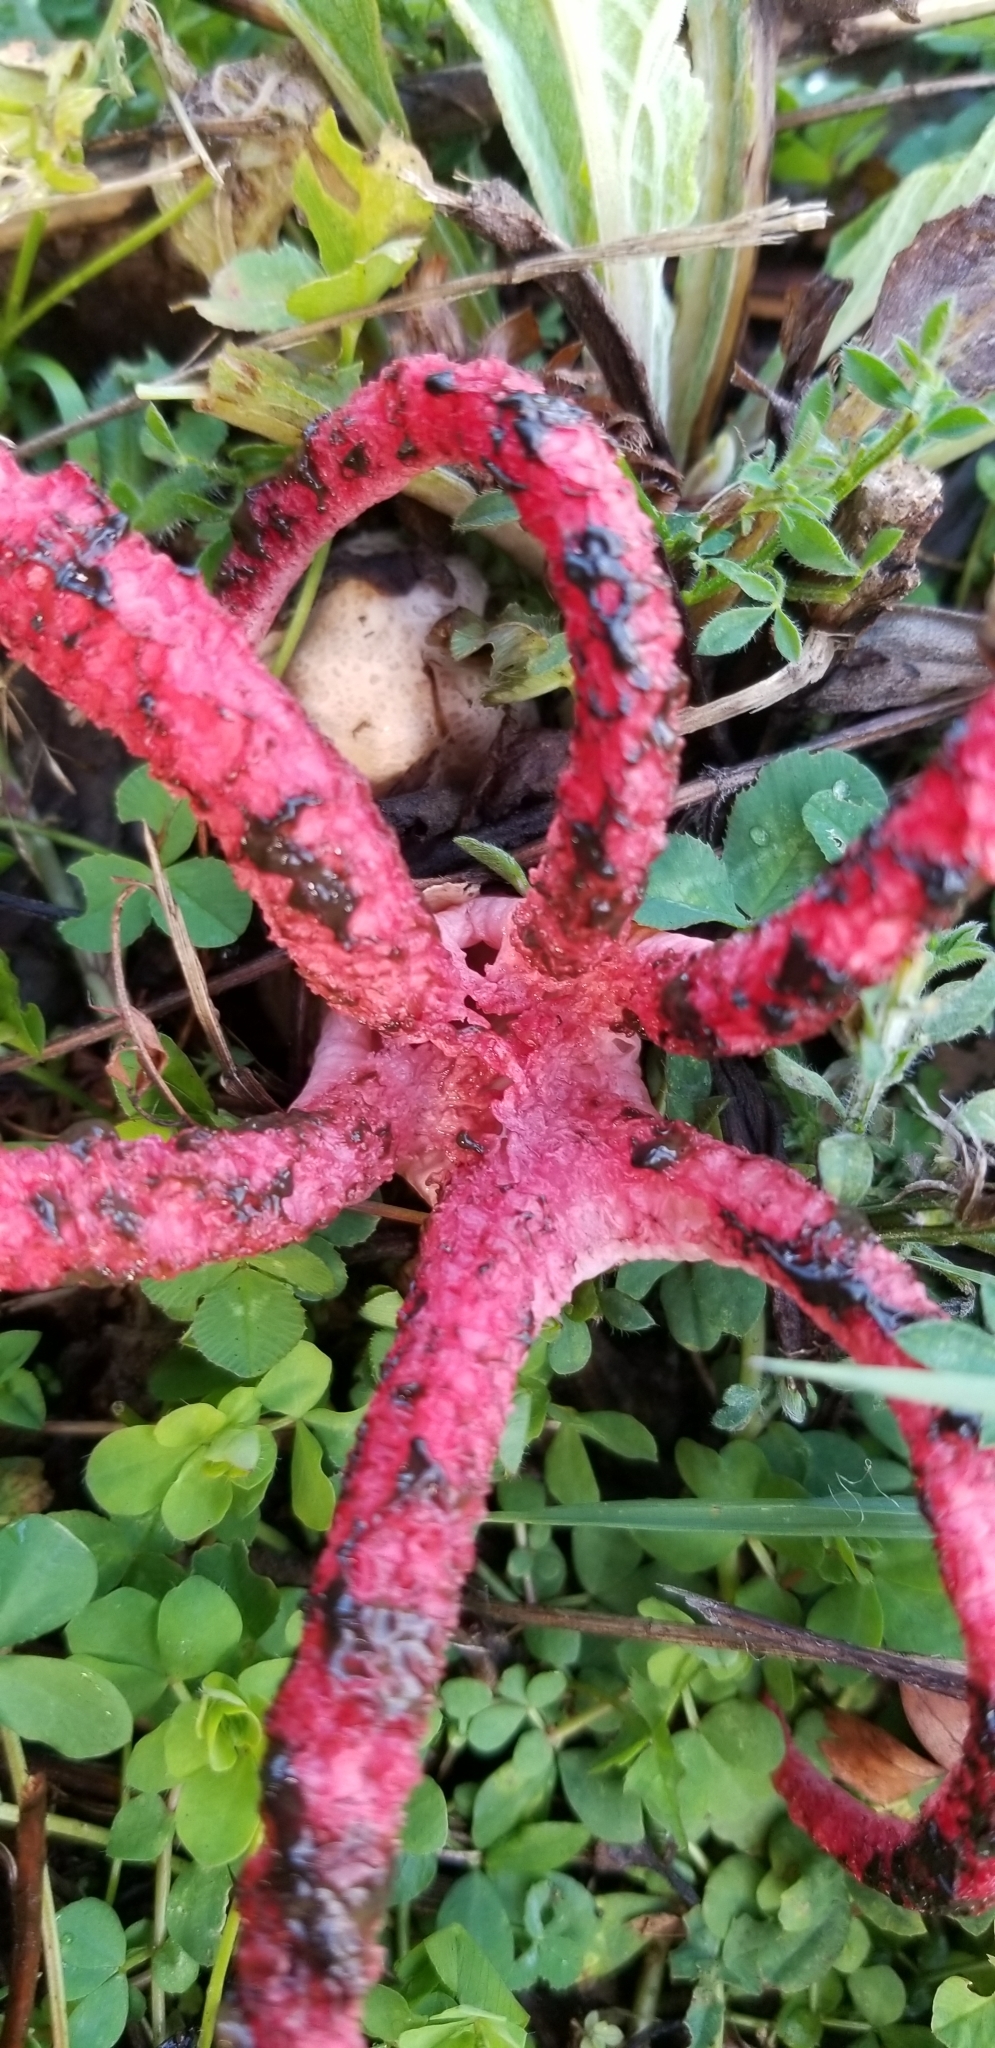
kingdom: Fungi
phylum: Basidiomycota
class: Agaricomycetes
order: Phallales
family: Phallaceae
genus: Clathrus
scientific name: Clathrus archeri
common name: Devil's fingers
